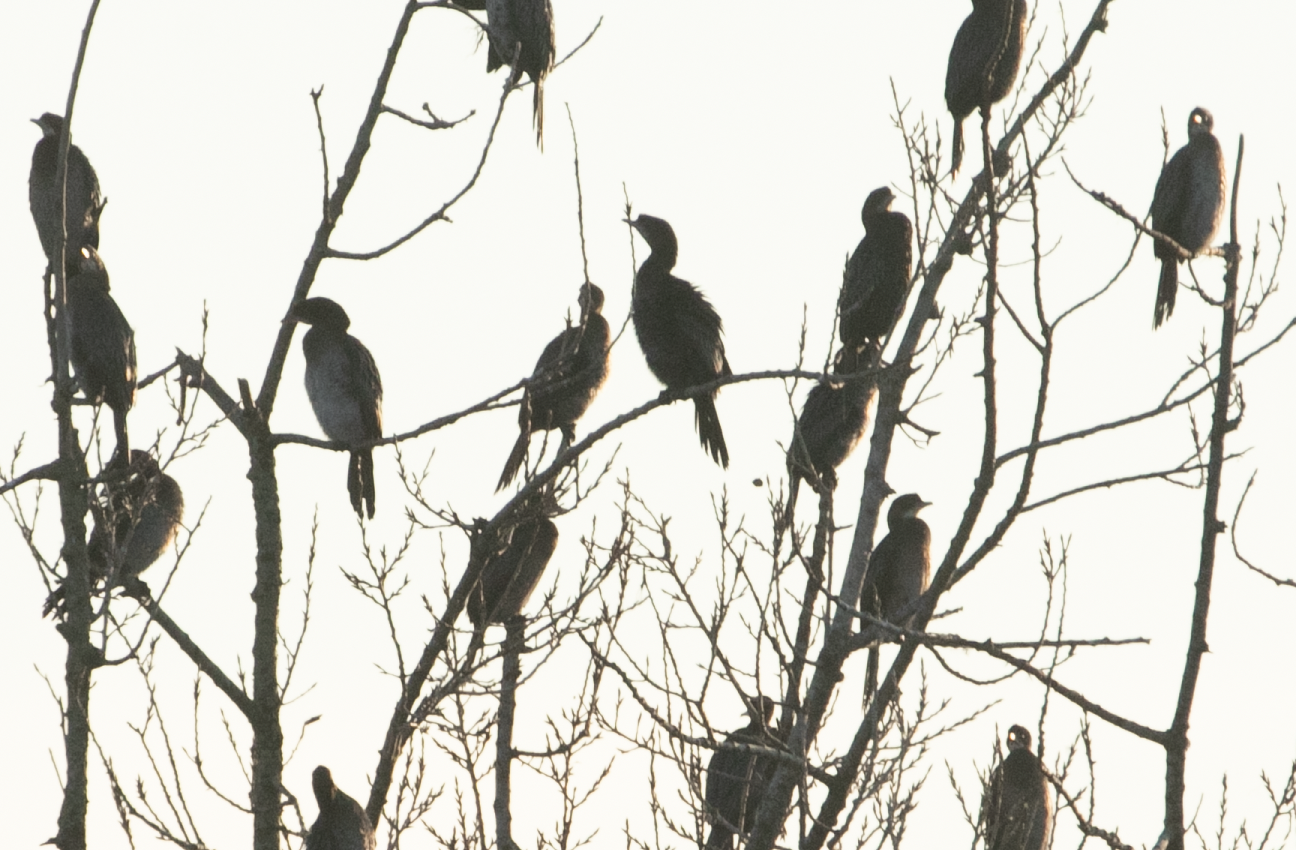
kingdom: Animalia
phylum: Chordata
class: Aves
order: Suliformes
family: Phalacrocoracidae
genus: Microcarbo
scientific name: Microcarbo pygmaeus
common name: Pygmy cormorant
